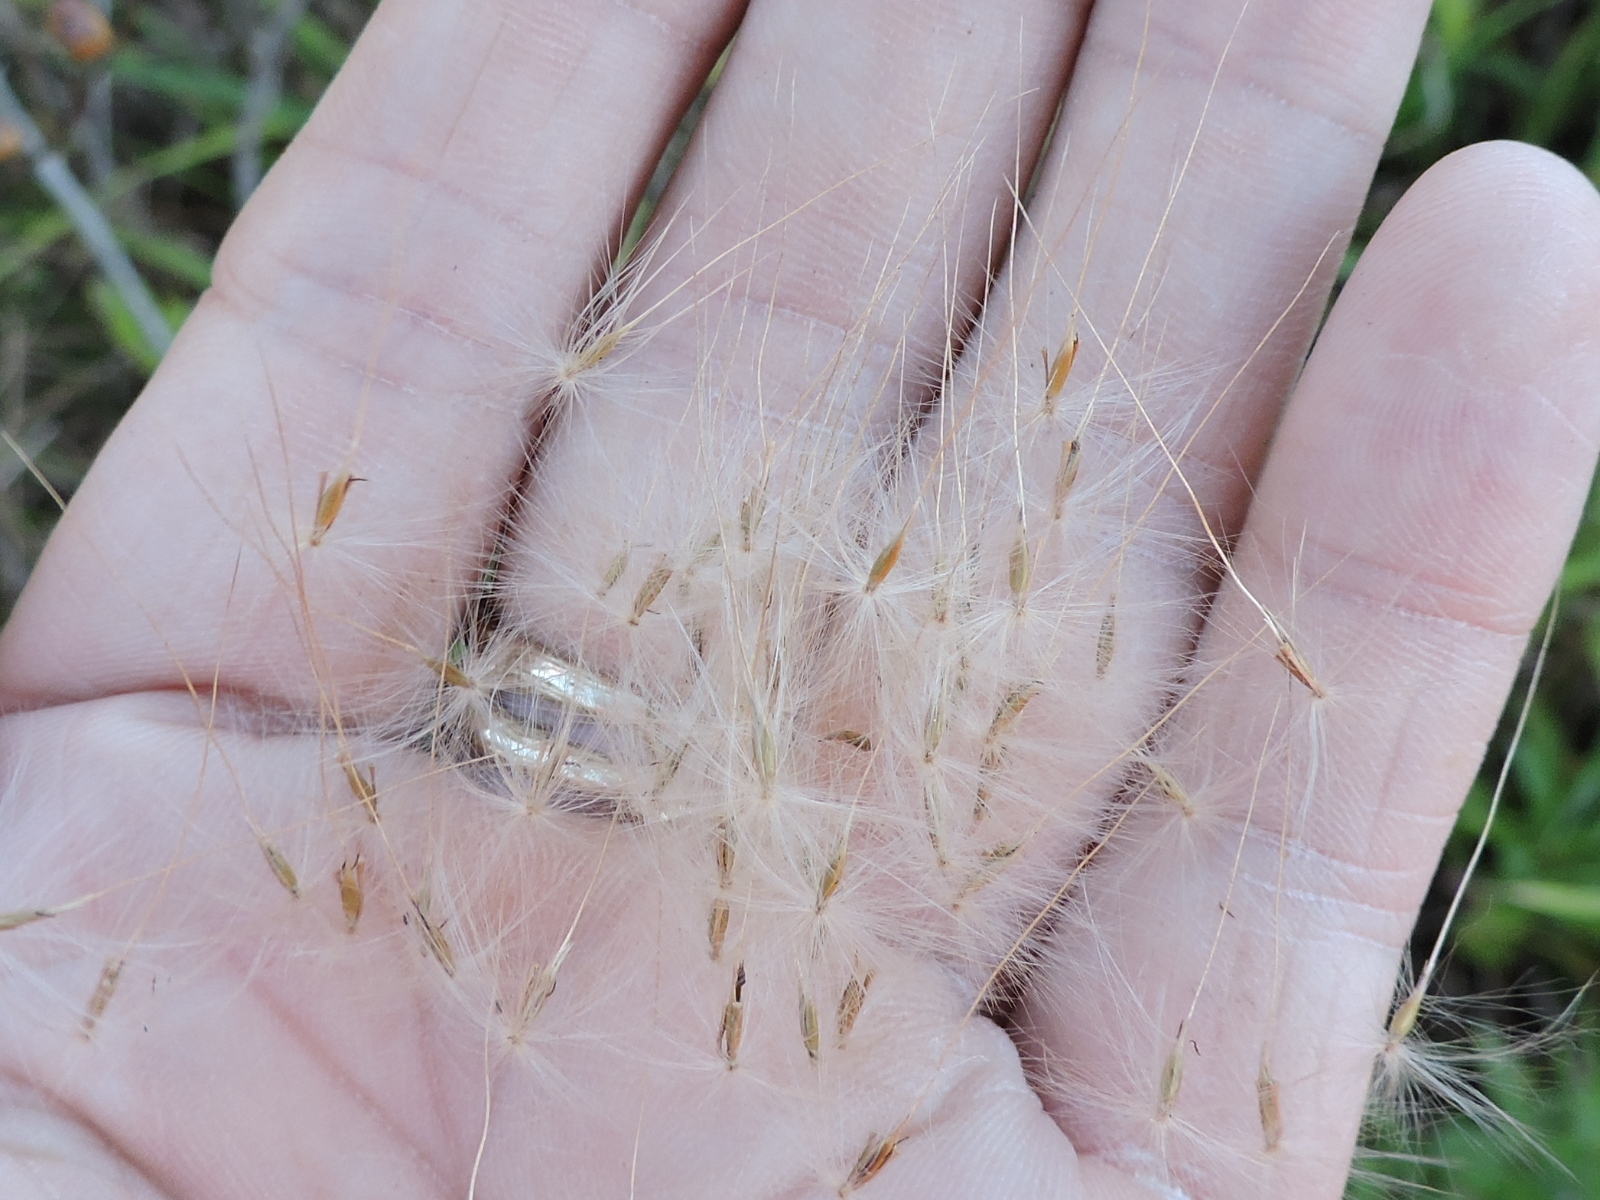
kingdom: Plantae
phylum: Tracheophyta
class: Liliopsida
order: Poales
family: Poaceae
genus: Erianthus
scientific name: Erianthus giganteus
